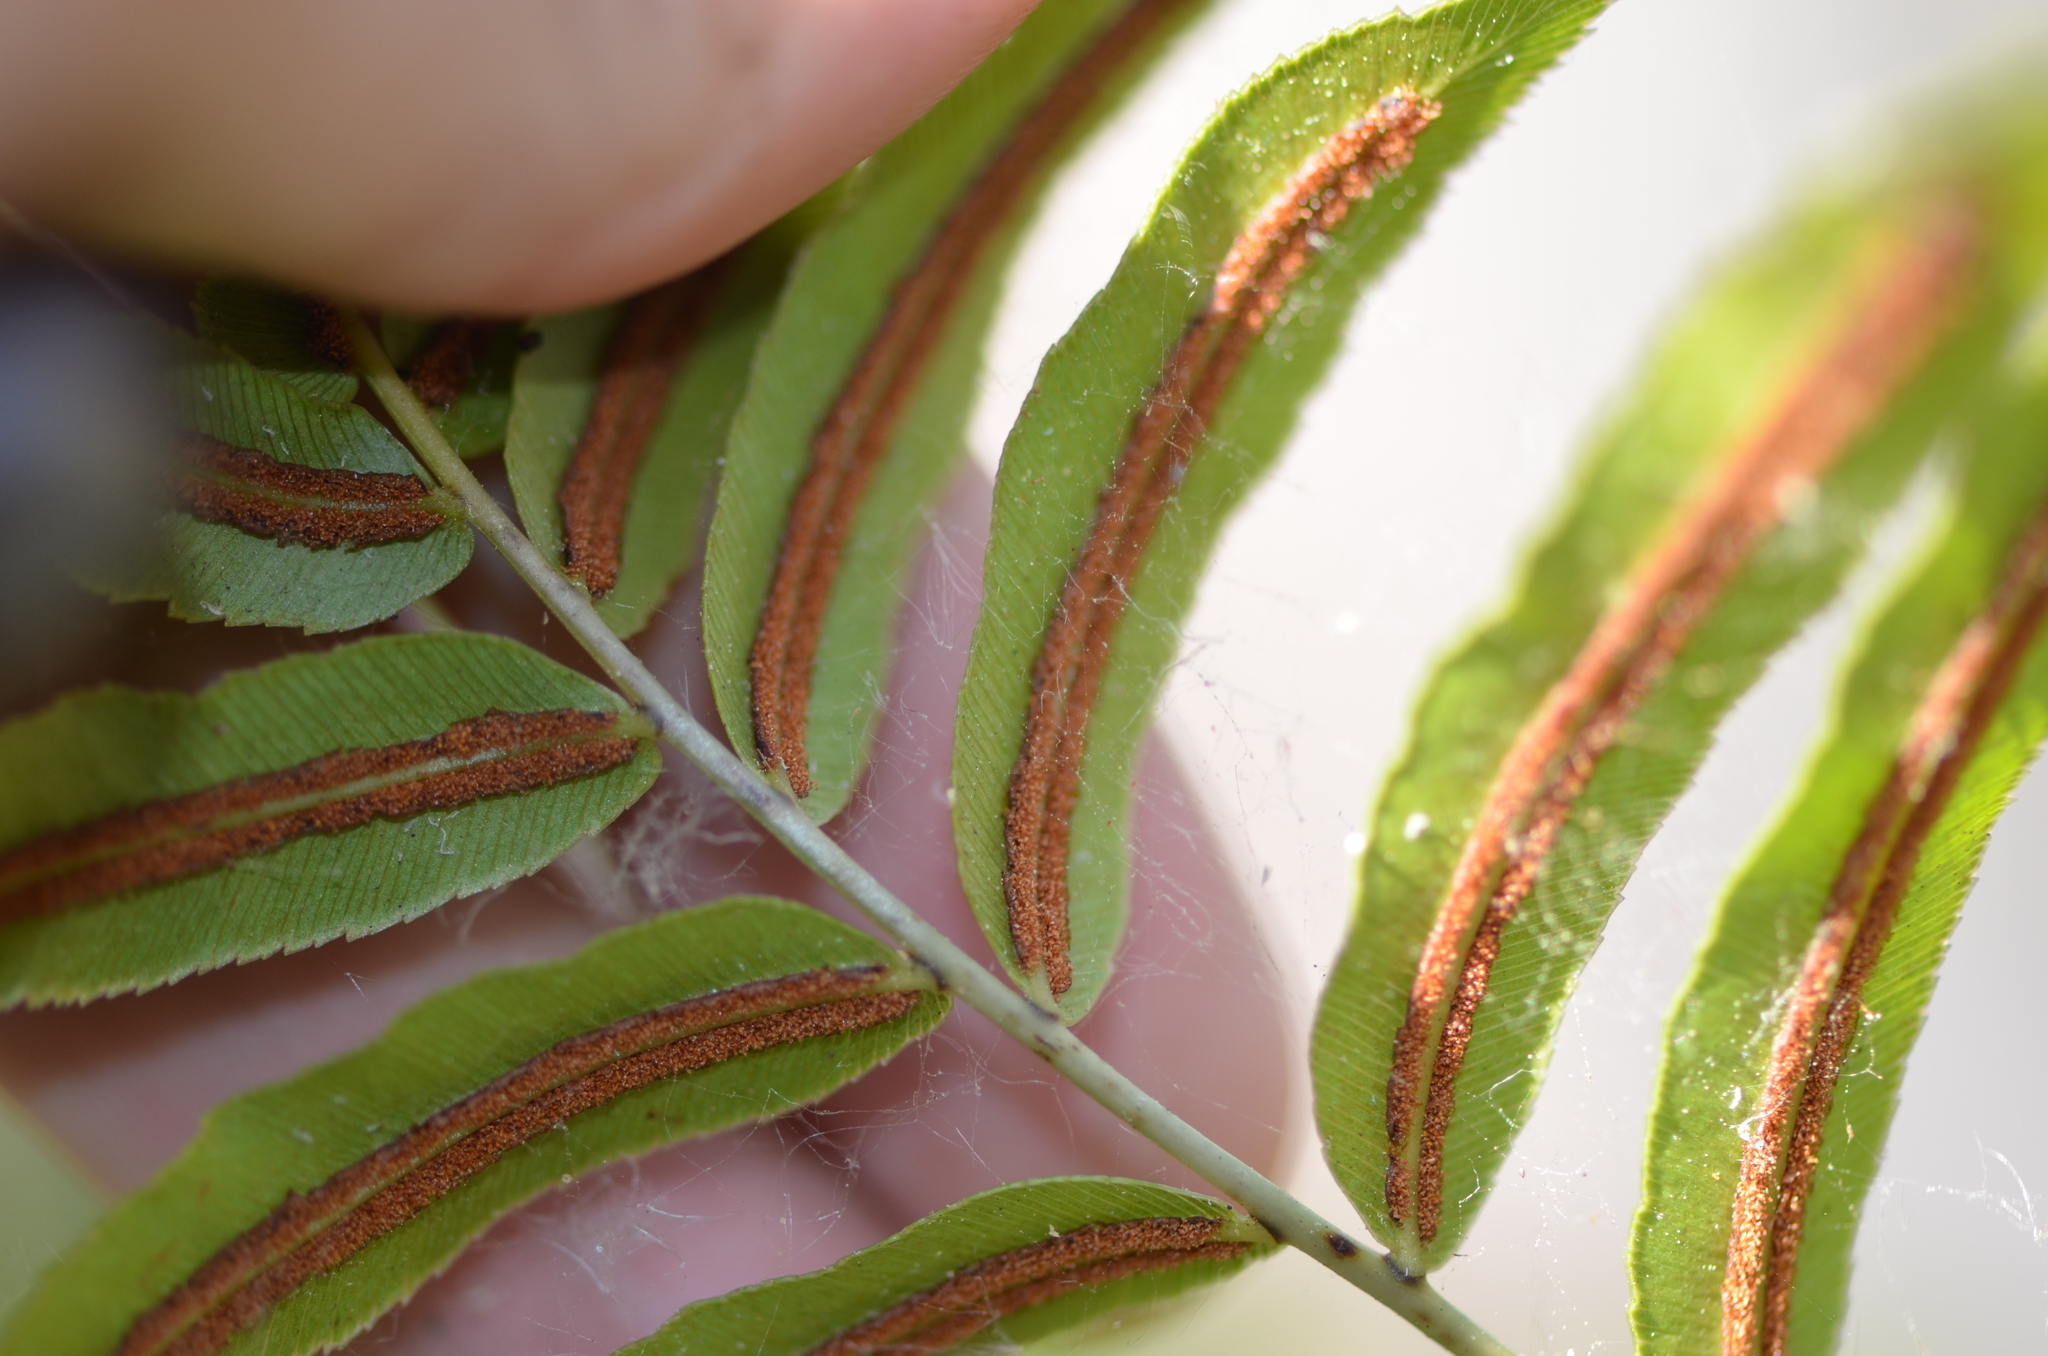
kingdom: Plantae
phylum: Tracheophyta
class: Polypodiopsida
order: Polypodiales
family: Blechnaceae
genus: Telmatoblechnum
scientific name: Telmatoblechnum serrulatum
